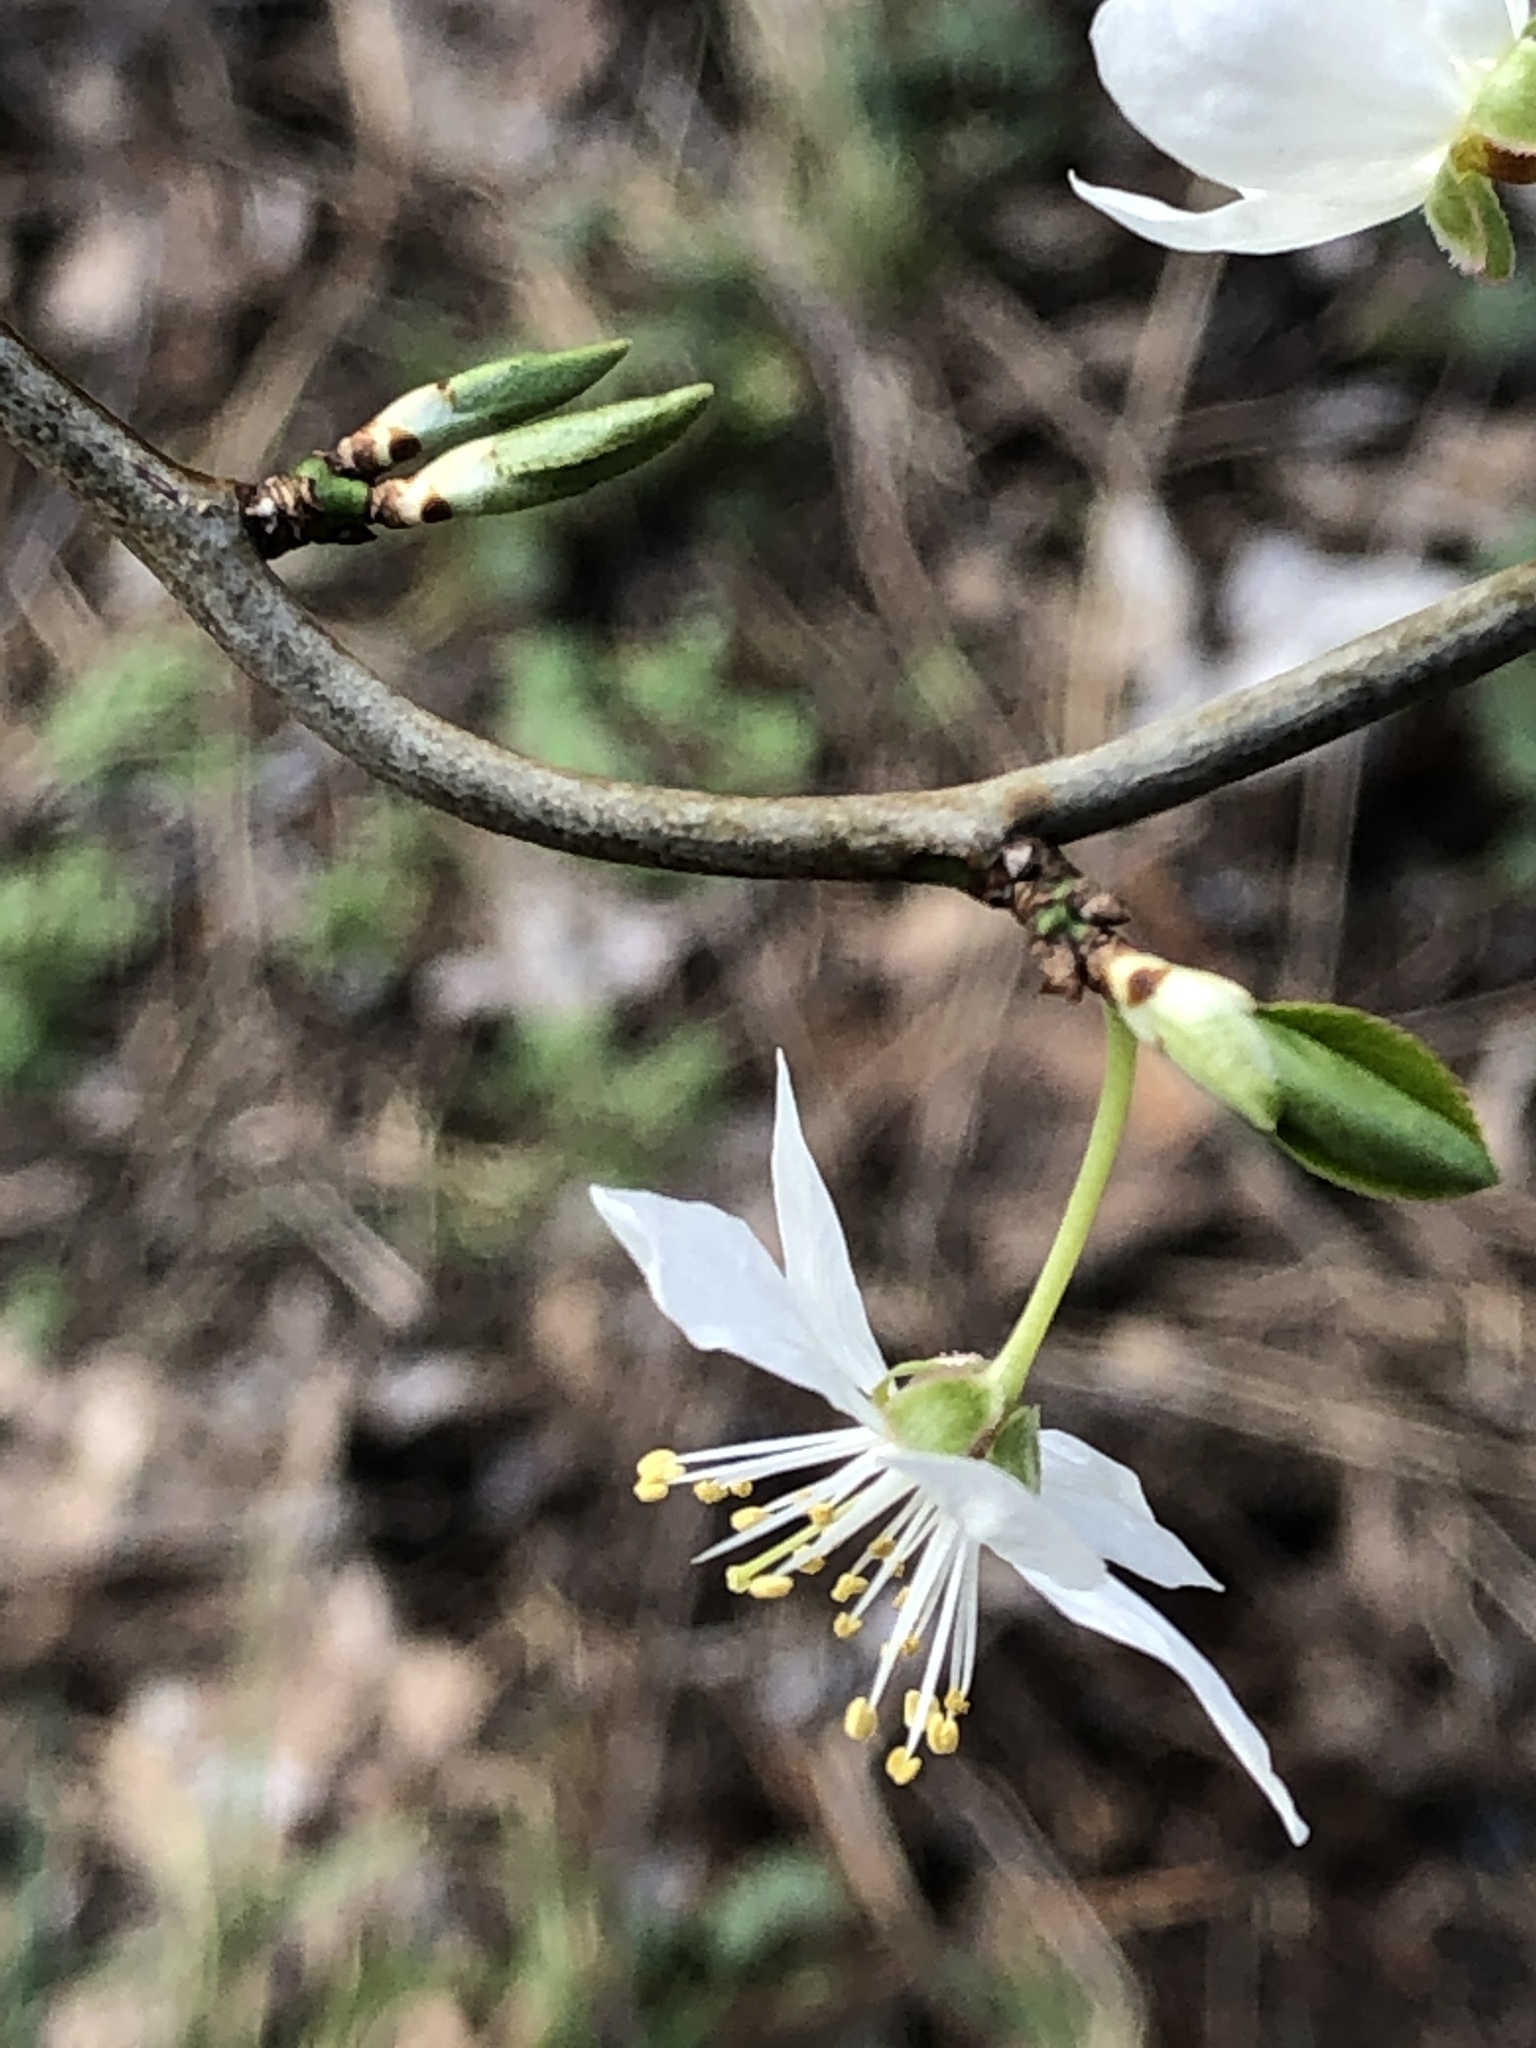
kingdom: Plantae
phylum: Tracheophyta
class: Magnoliopsida
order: Rosales
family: Rosaceae
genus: Prunus
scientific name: Prunus cerasifera
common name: Cherry plum
